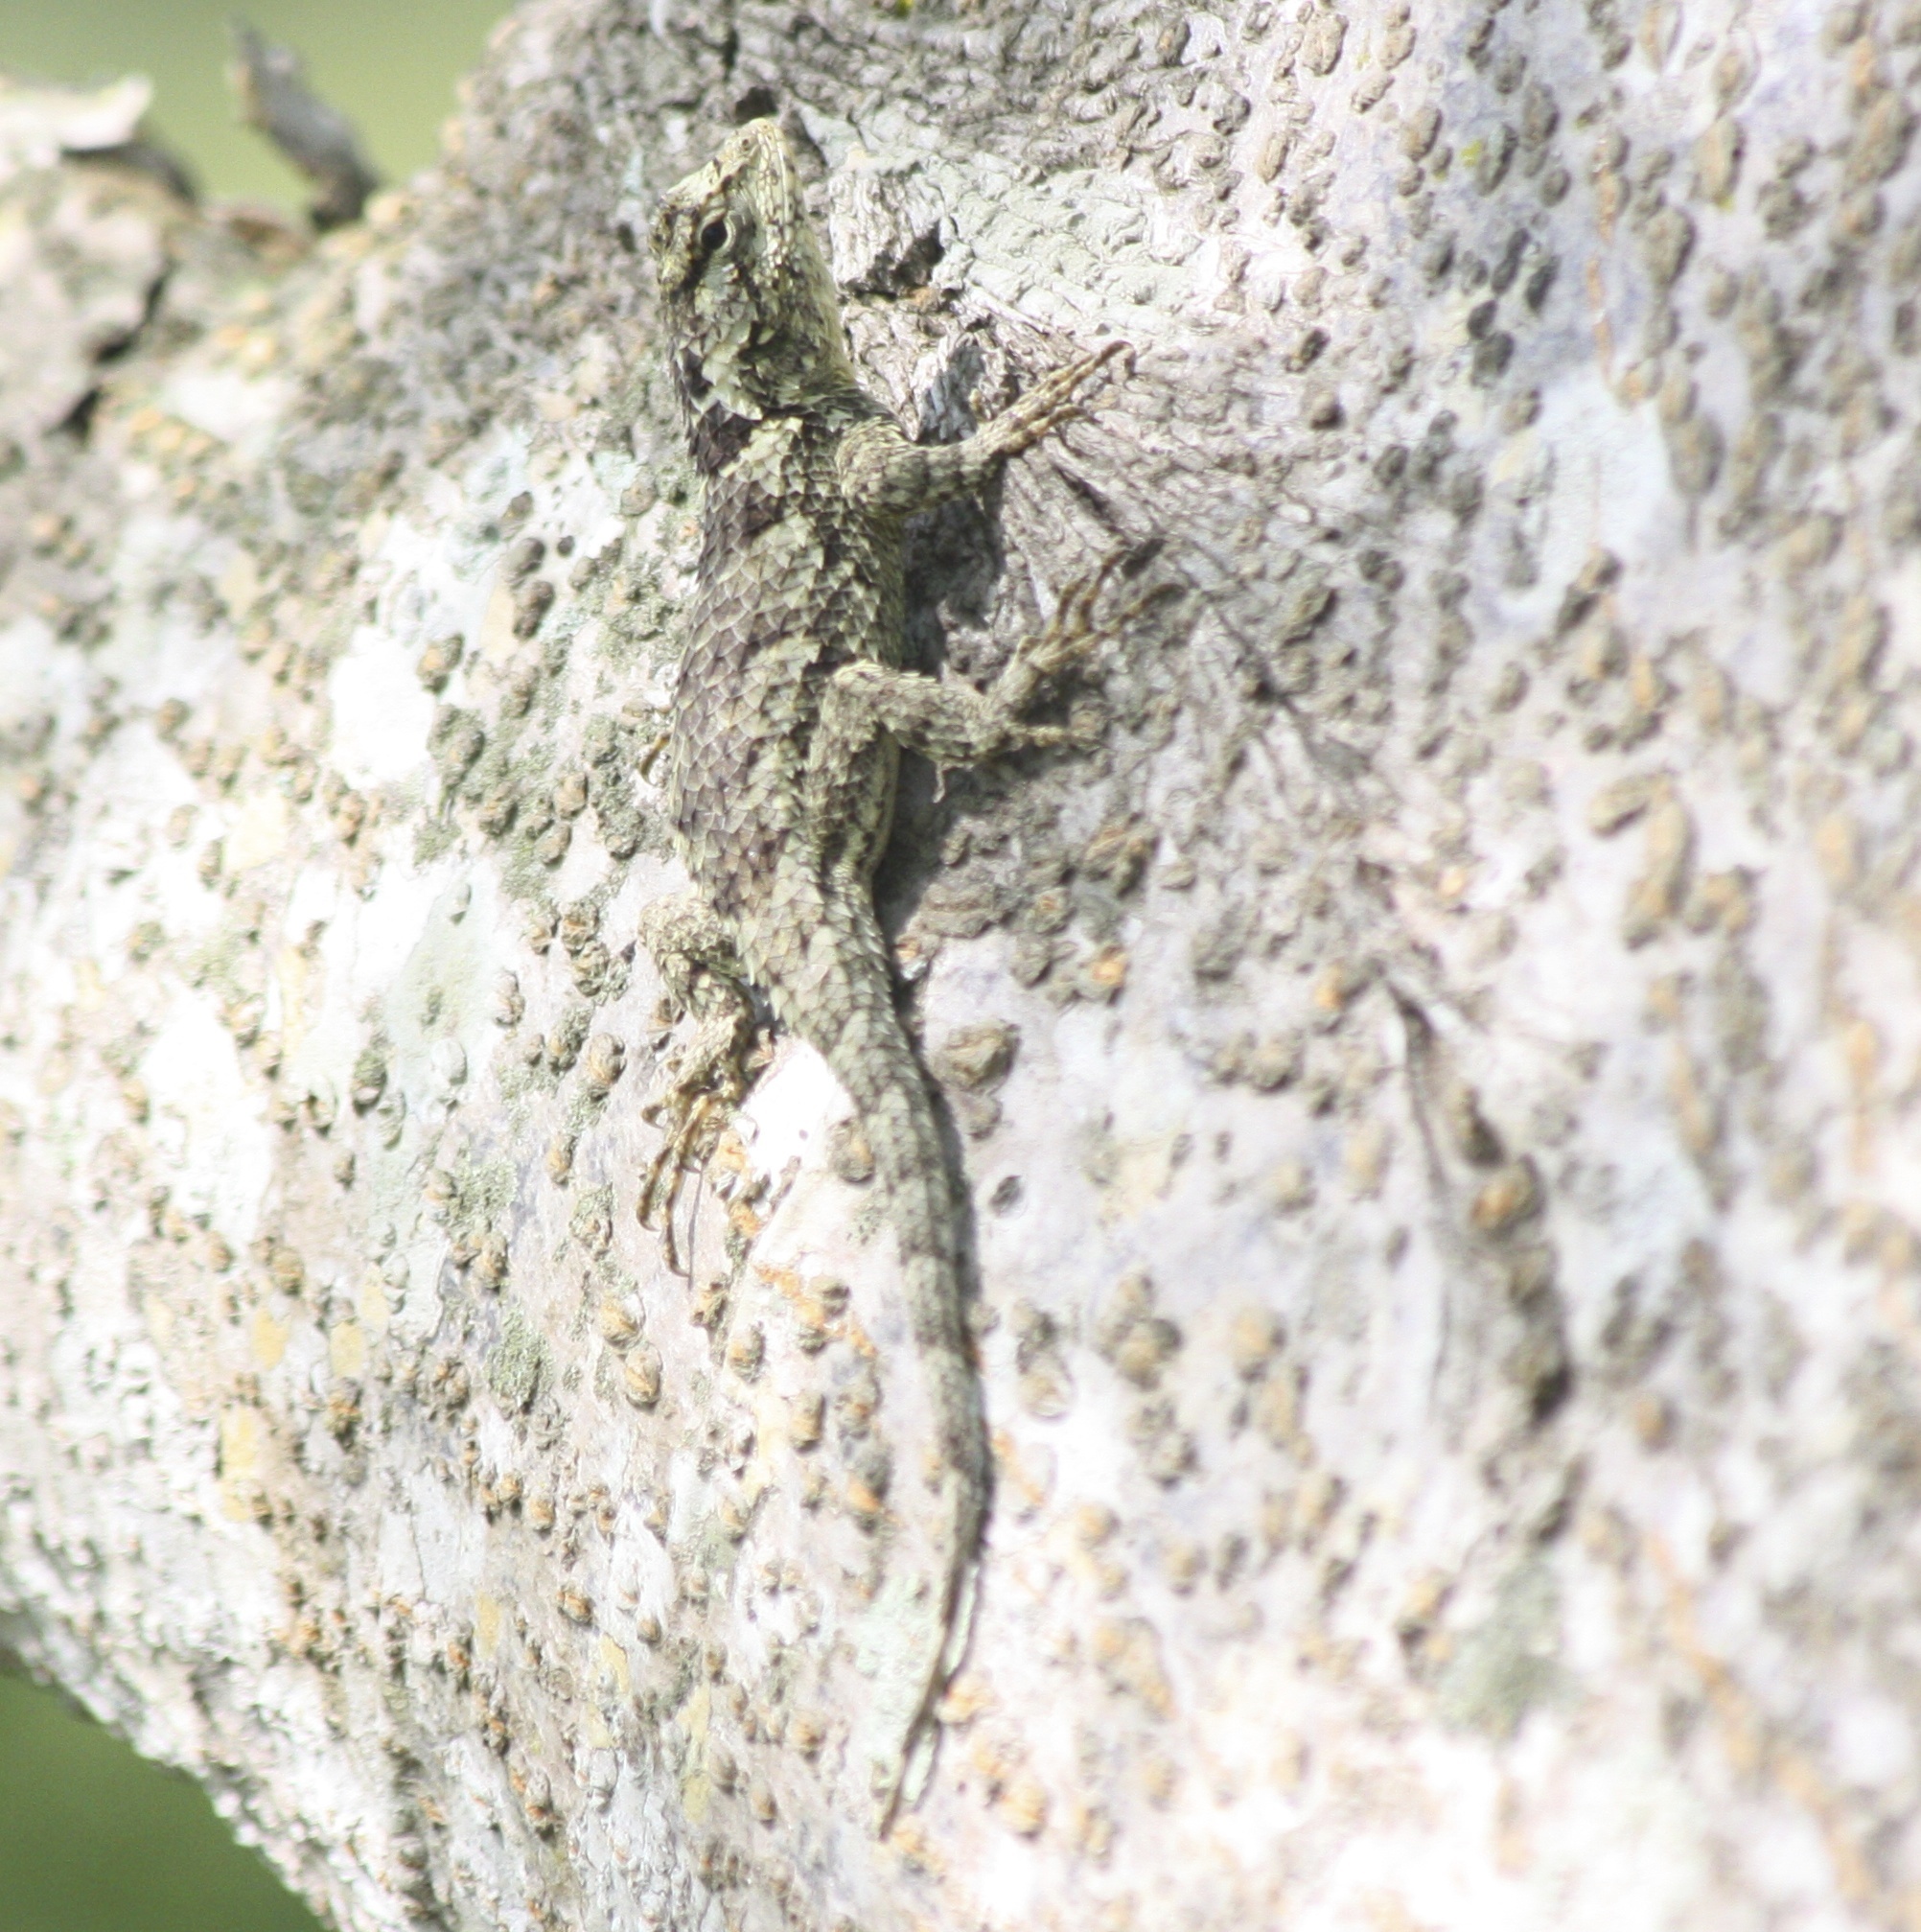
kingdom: Animalia
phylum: Chordata
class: Squamata
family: Phrynosomatidae
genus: Sceloporus
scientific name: Sceloporus melanorhinus
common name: Black-nosed lizard
